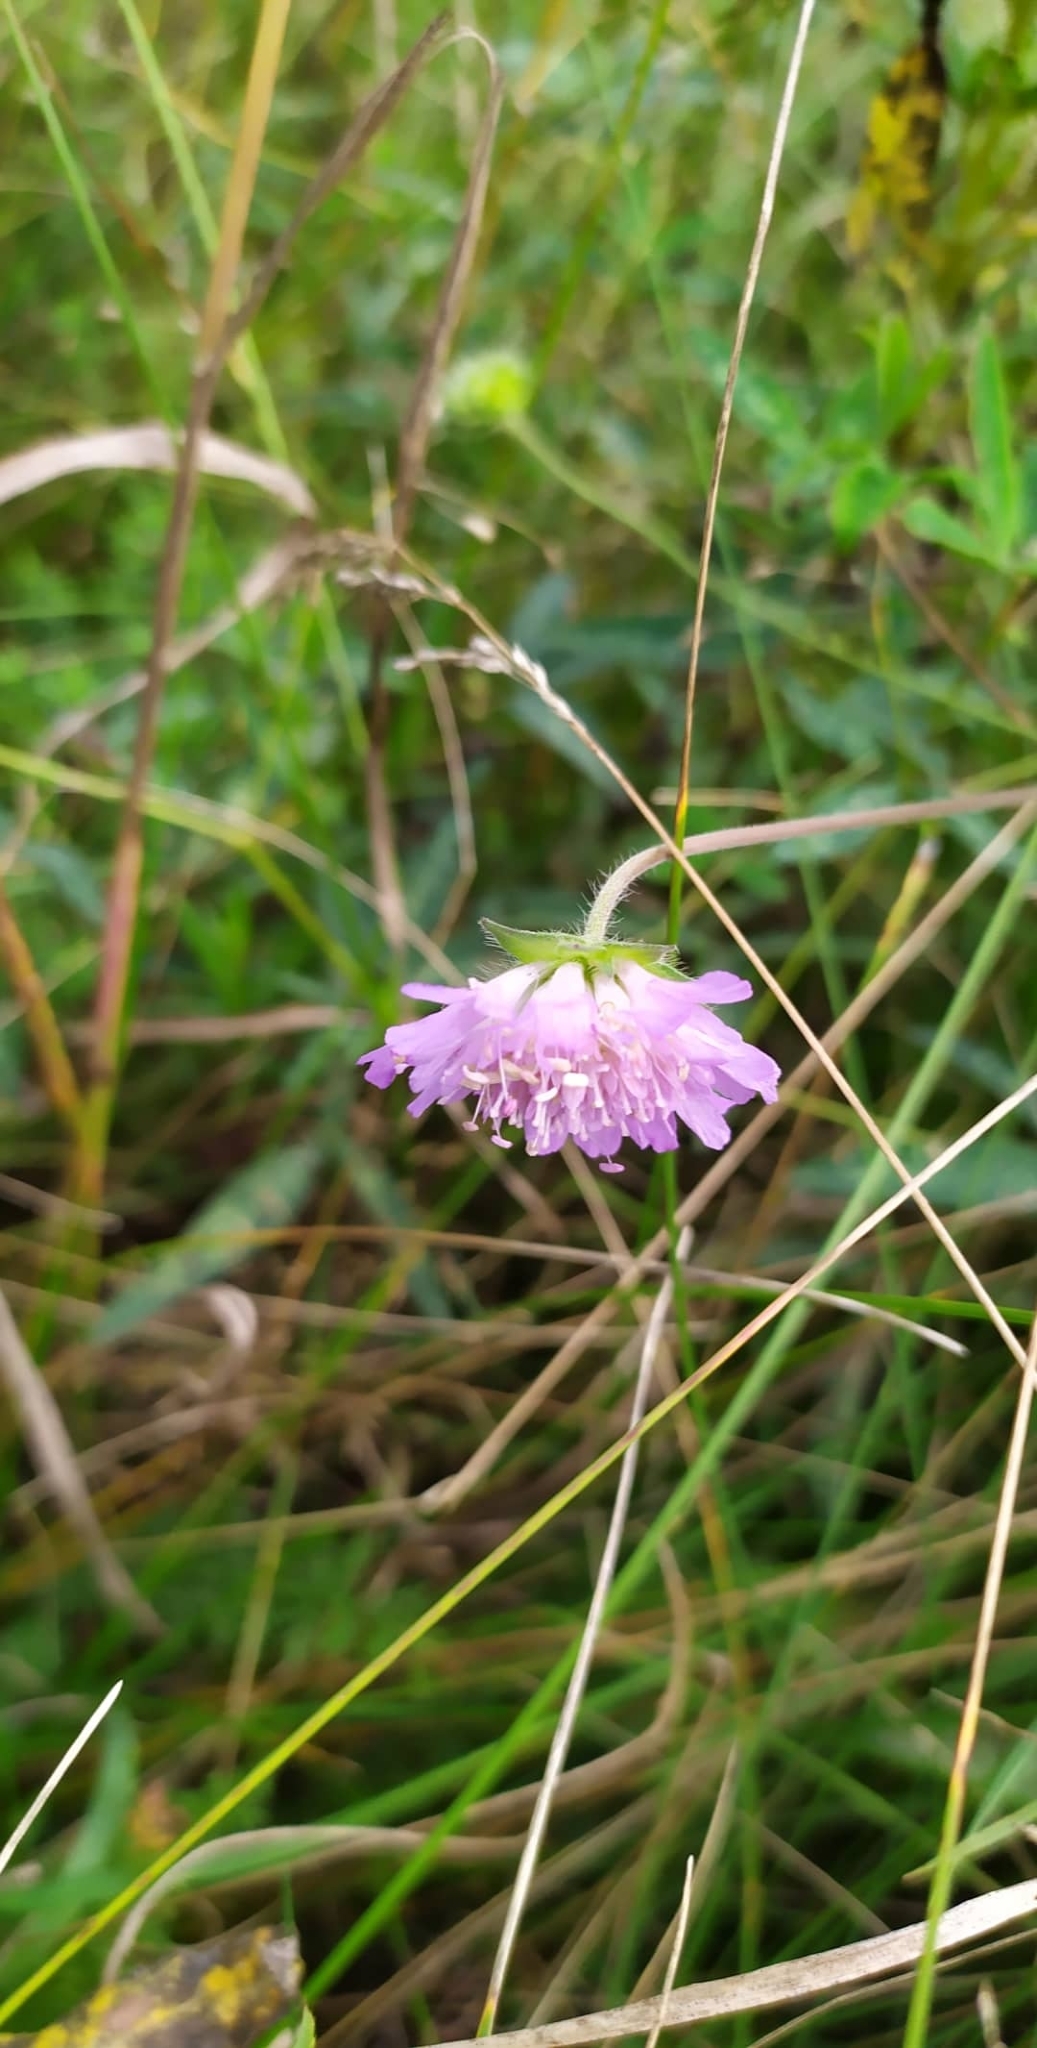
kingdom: Plantae
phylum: Tracheophyta
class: Magnoliopsida
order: Dipsacales
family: Caprifoliaceae
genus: Knautia
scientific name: Knautia arvensis
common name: Field scabiosa
